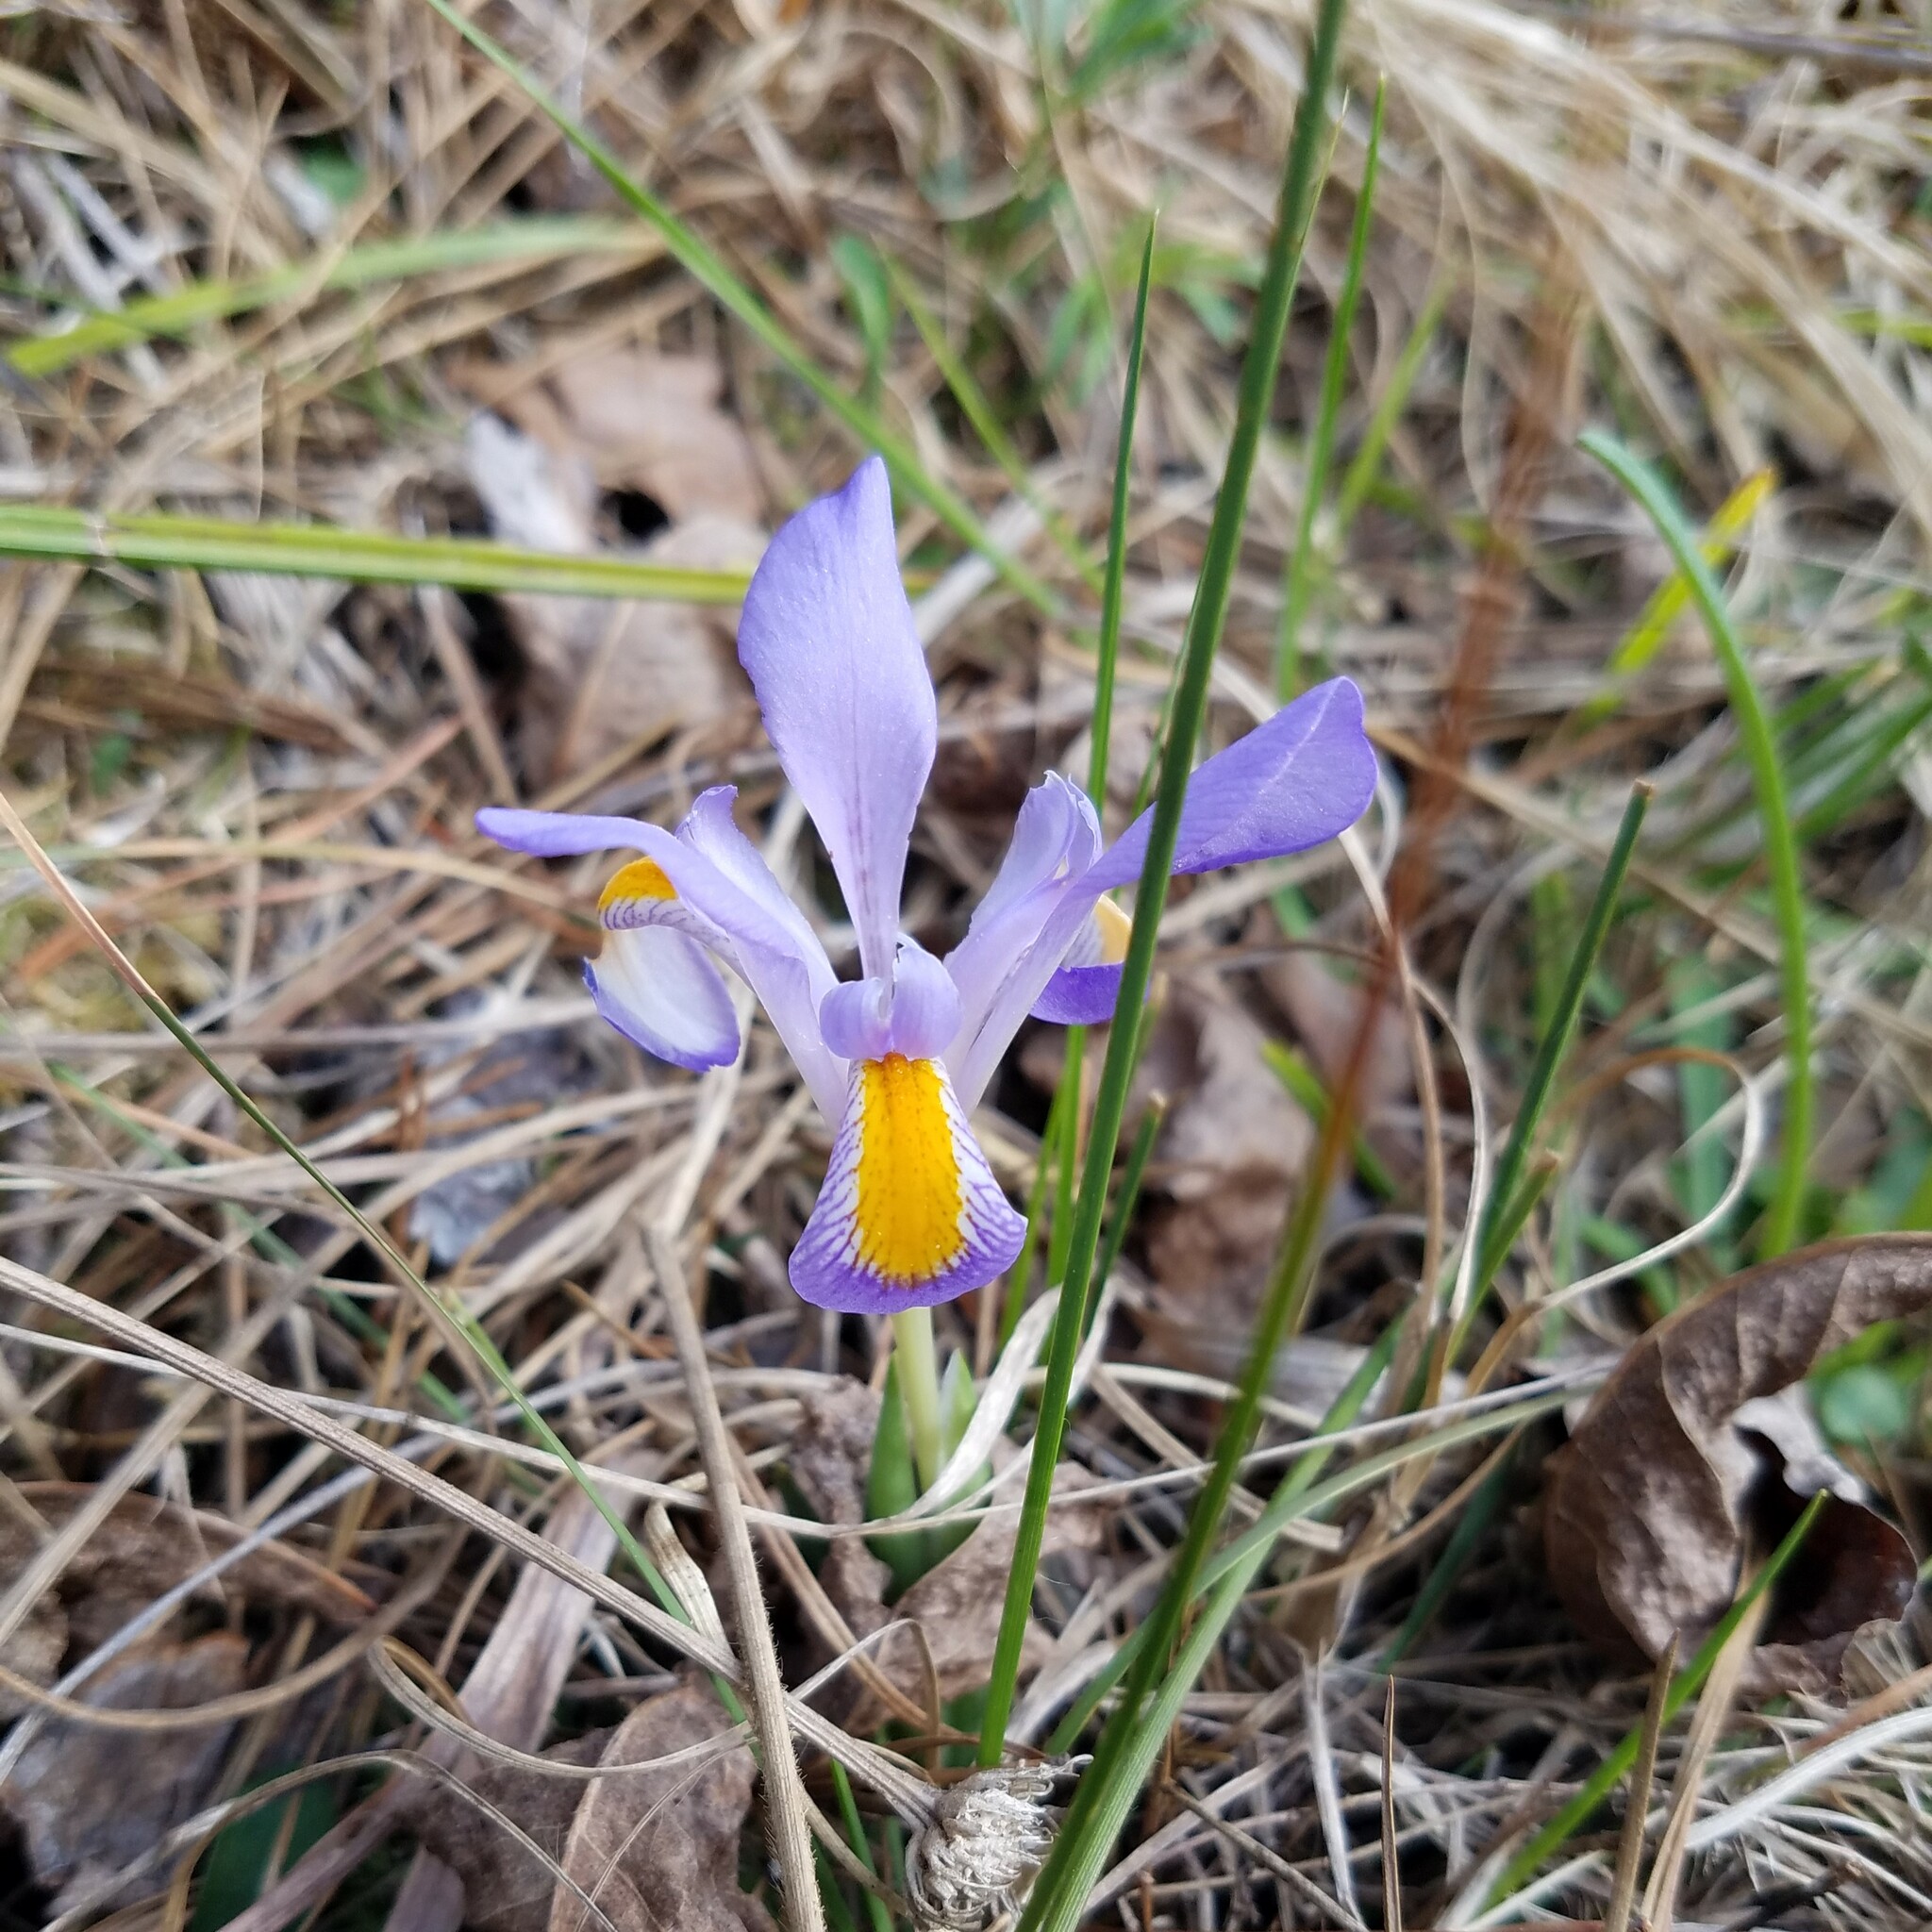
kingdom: Plantae
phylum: Tracheophyta
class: Liliopsida
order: Asparagales
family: Iridaceae
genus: Iris
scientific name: Iris verna
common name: Dwarf iris
